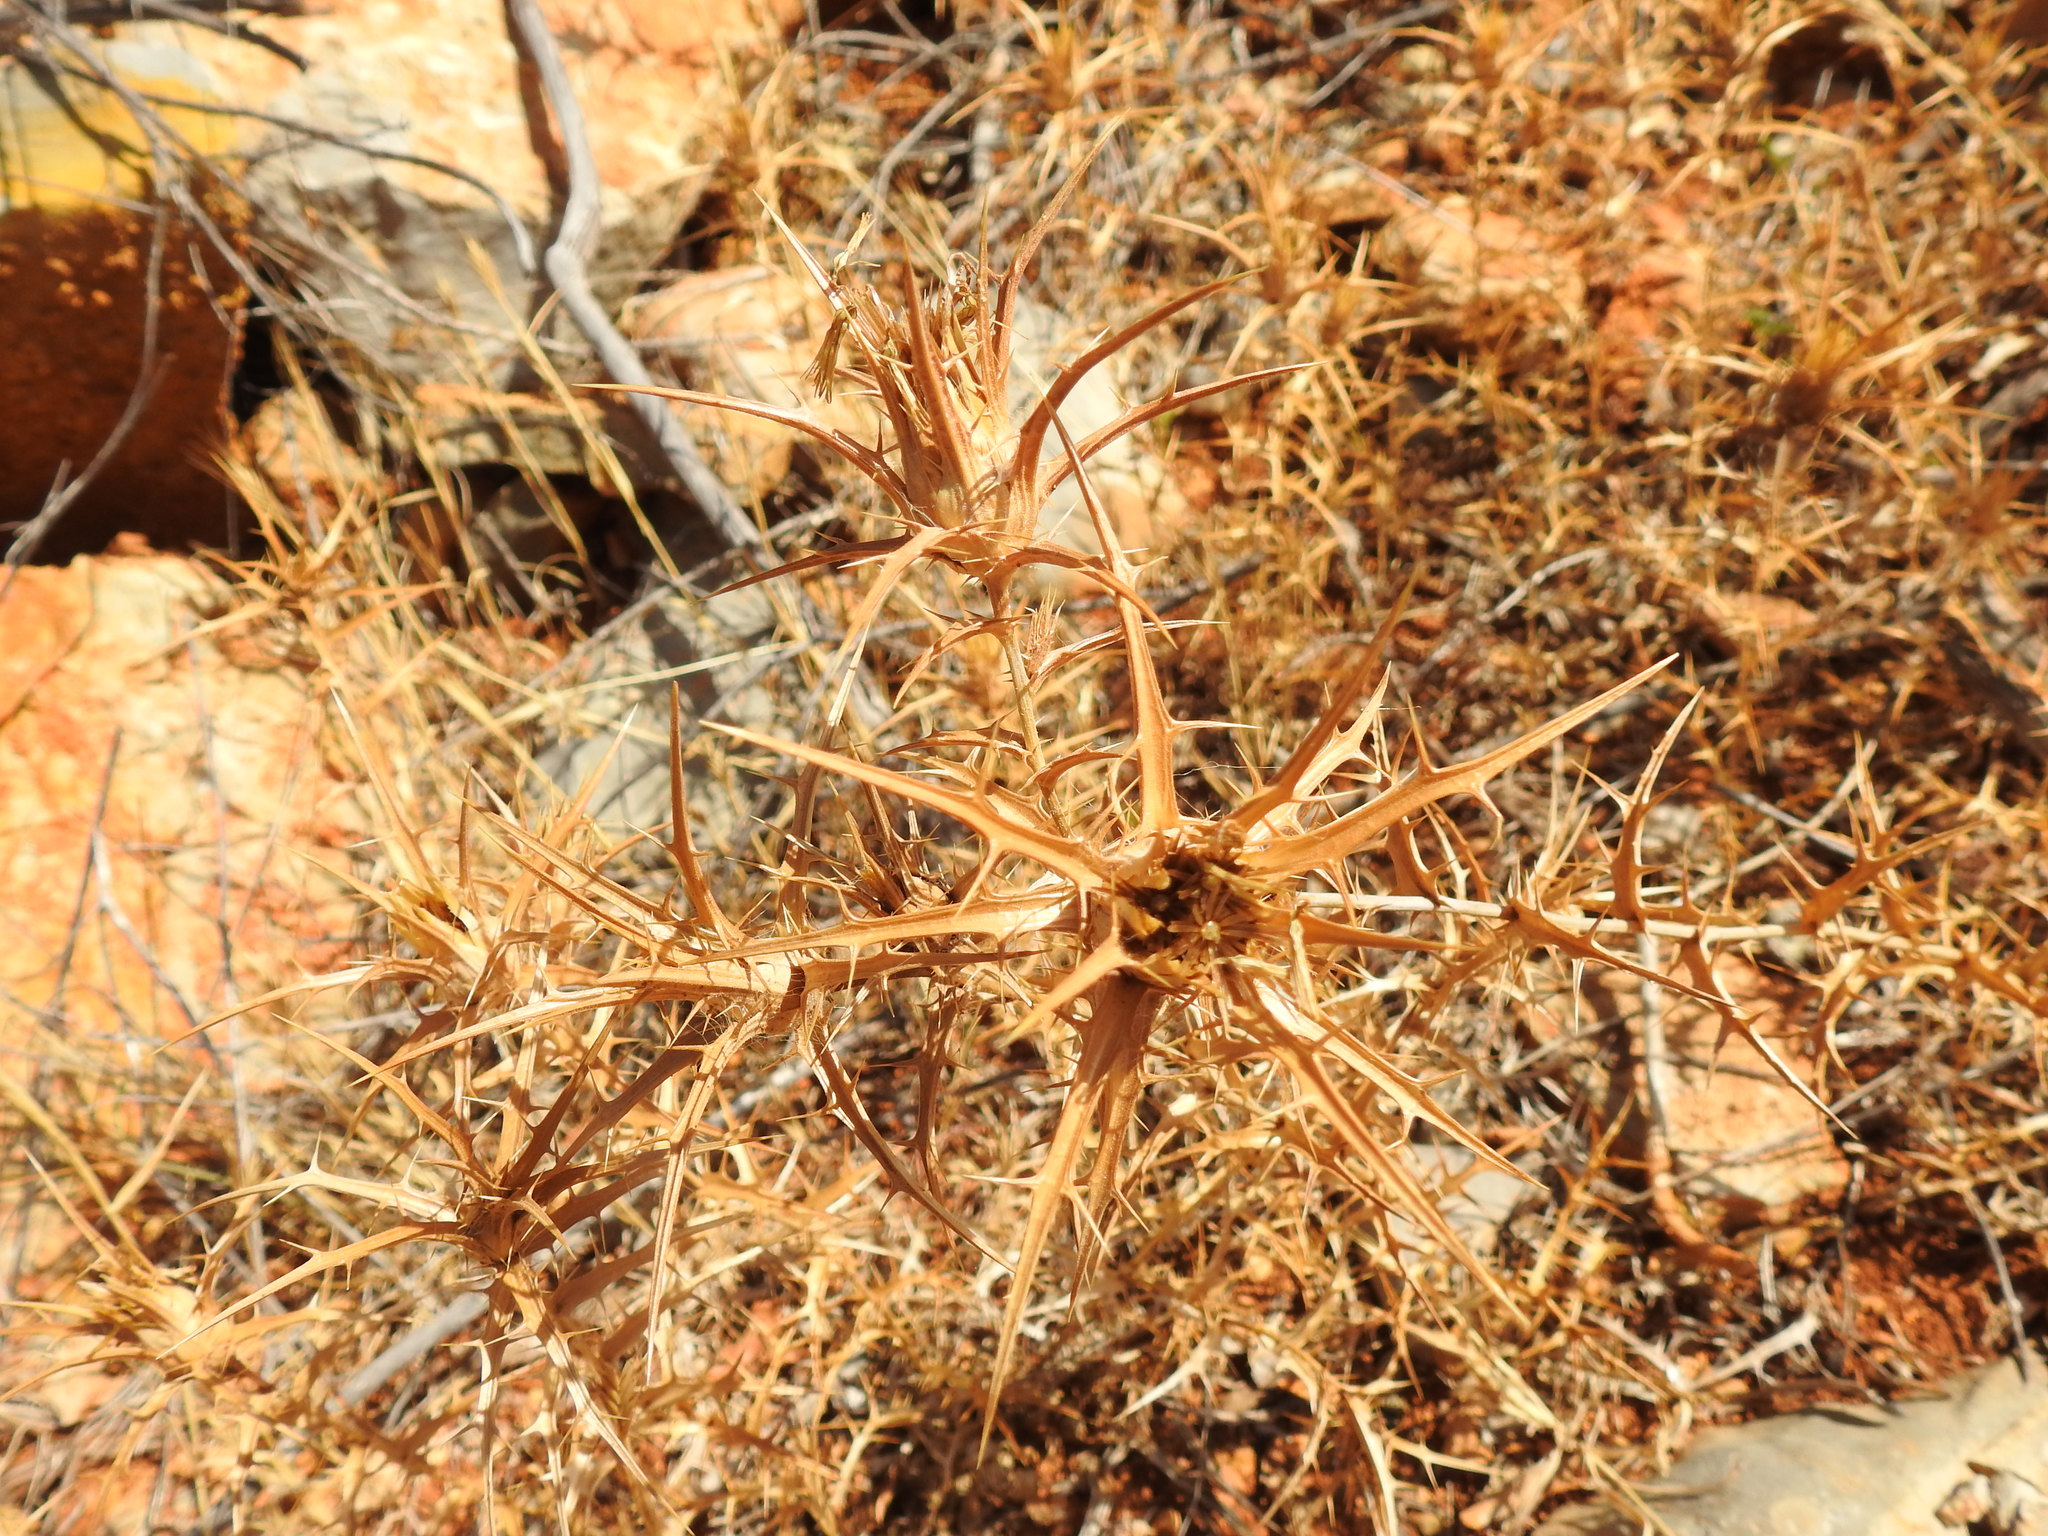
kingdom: Plantae
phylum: Tracheophyta
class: Magnoliopsida
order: Asterales
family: Asteraceae
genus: Carlina
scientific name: Carlina racemosa
